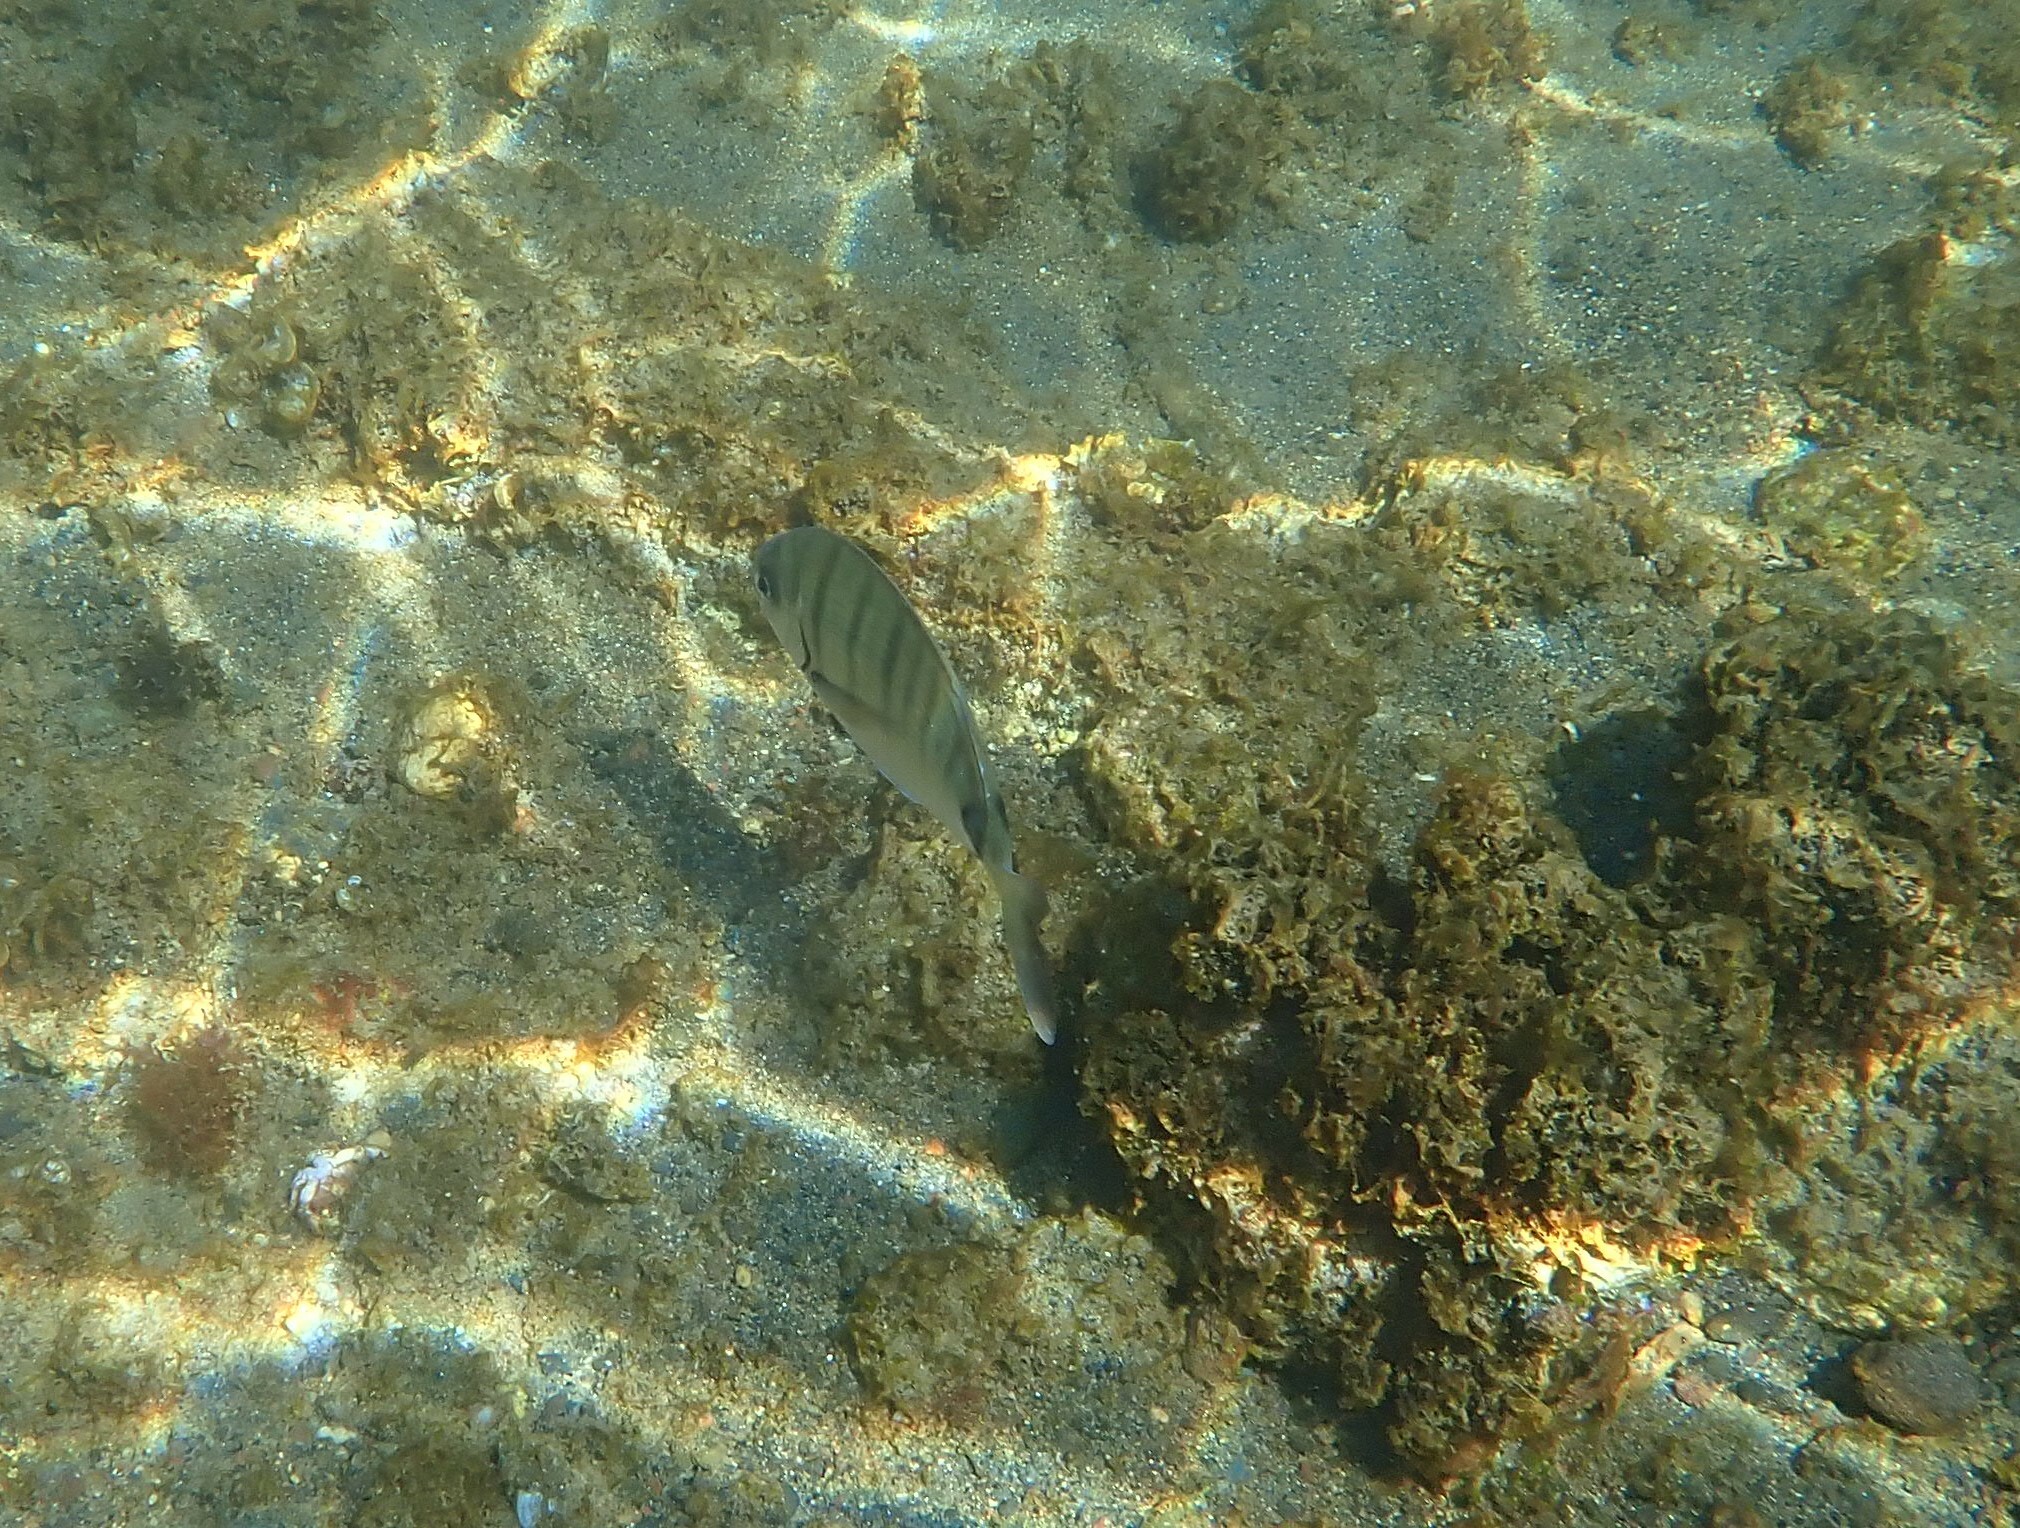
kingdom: Animalia
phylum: Chordata
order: Perciformes
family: Sparidae
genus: Diplodus
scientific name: Diplodus cadenati
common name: Moroccan white seabream
